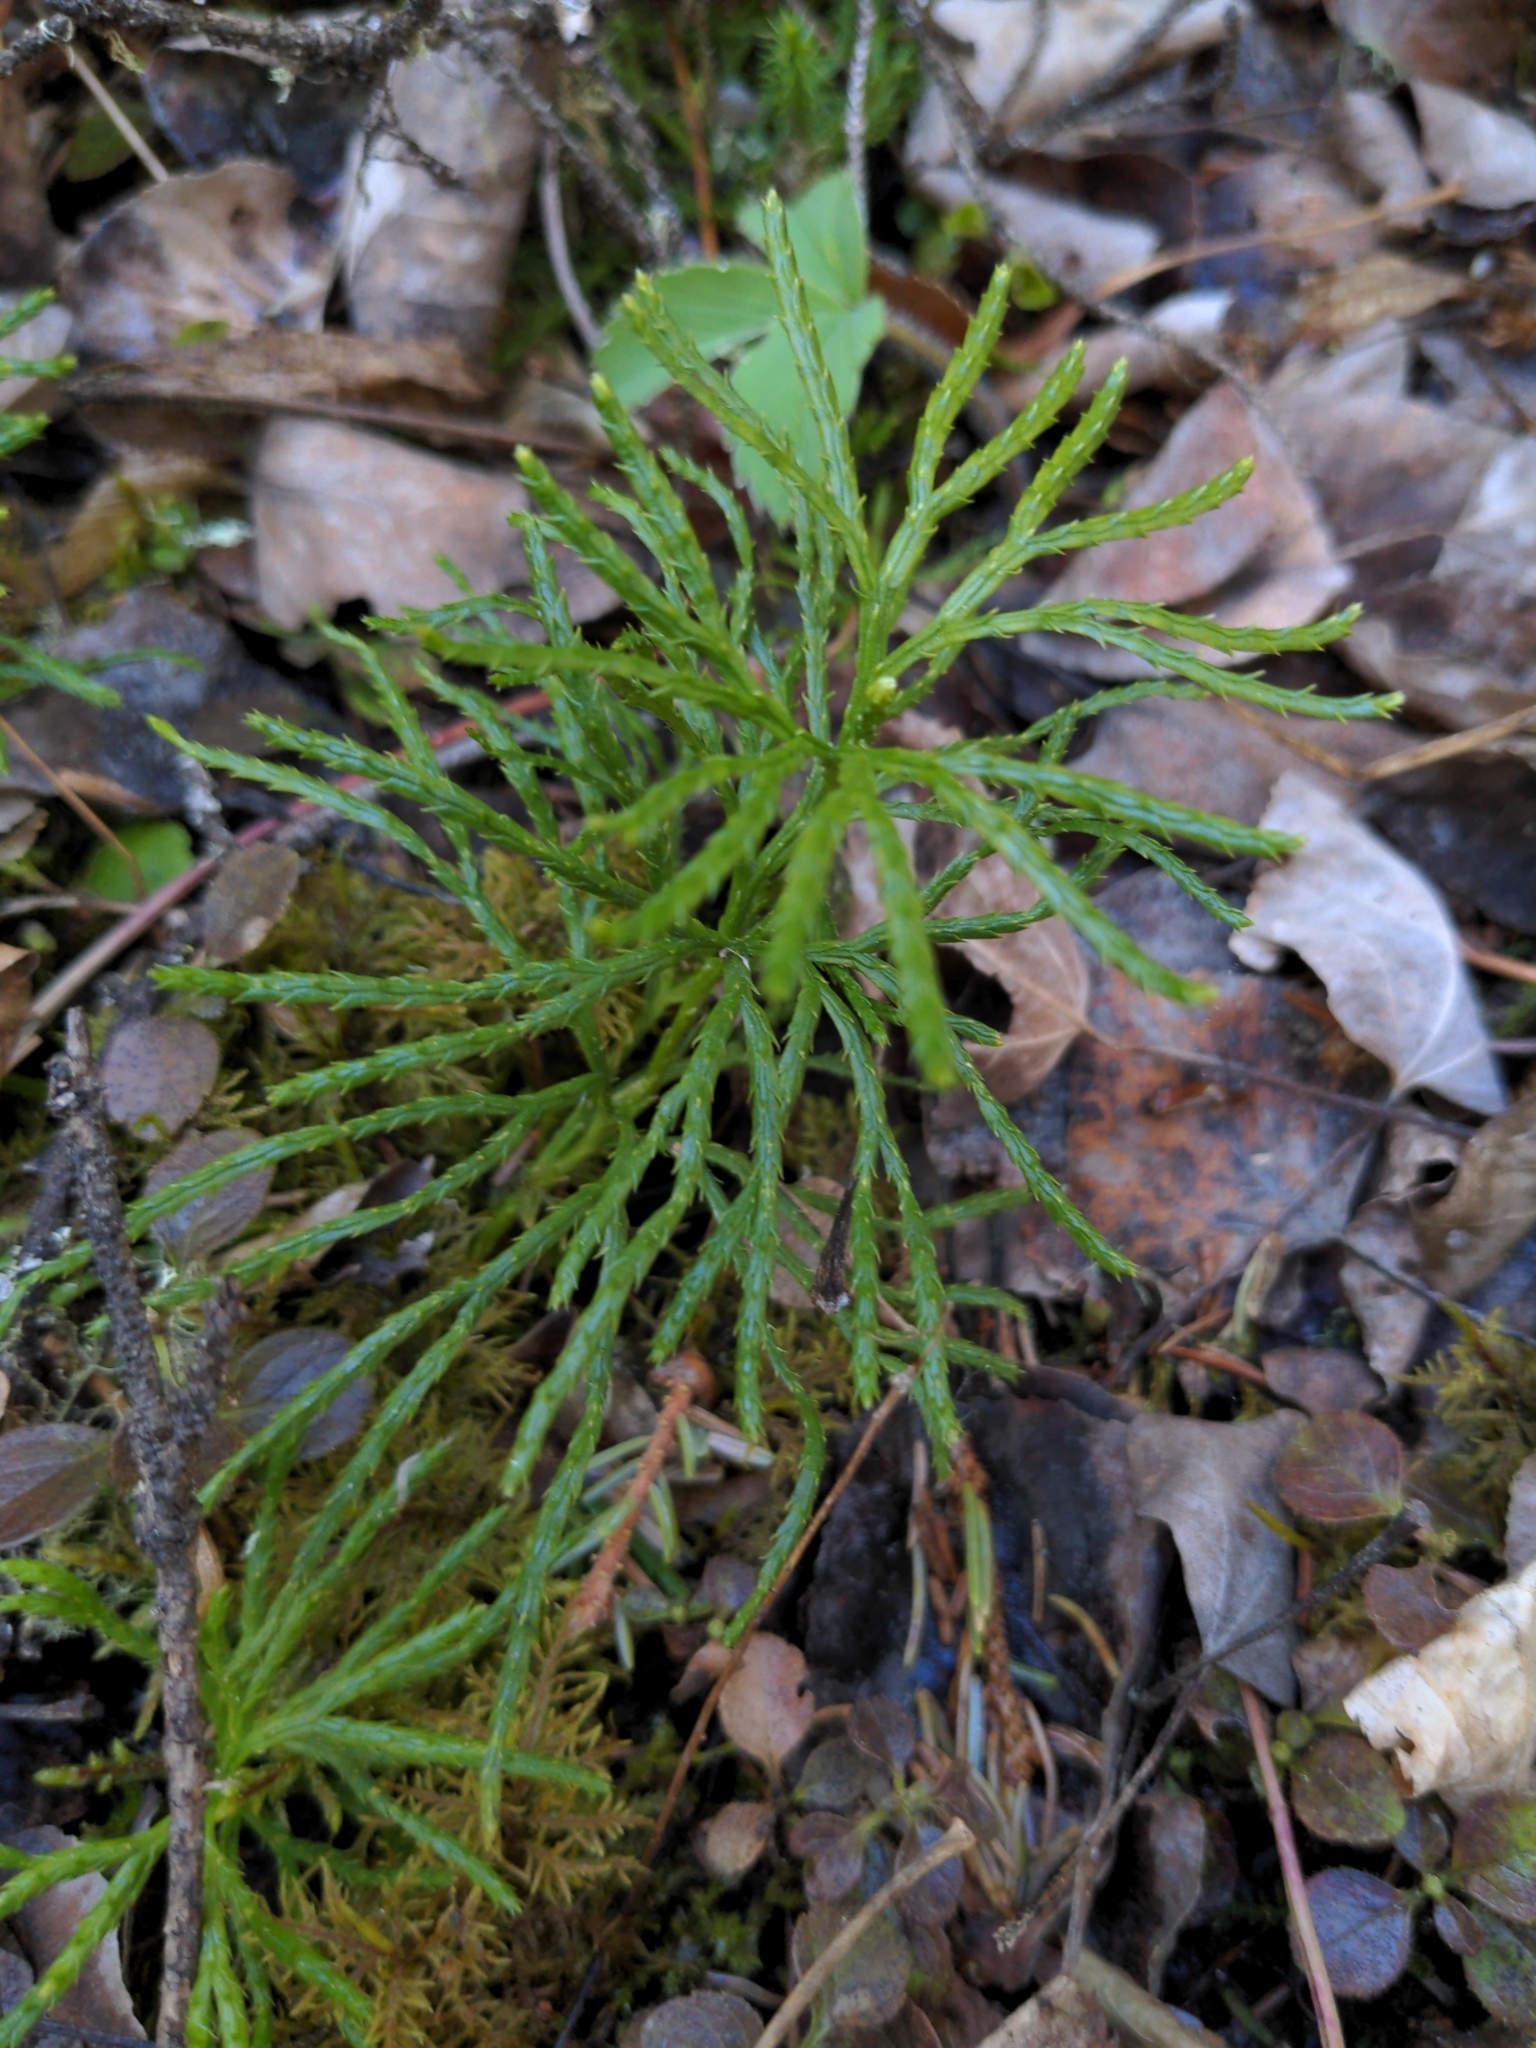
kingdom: Plantae
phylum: Tracheophyta
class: Lycopodiopsida
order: Lycopodiales
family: Lycopodiaceae
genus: Diphasiastrum
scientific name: Diphasiastrum complanatum
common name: Northern running-pine
